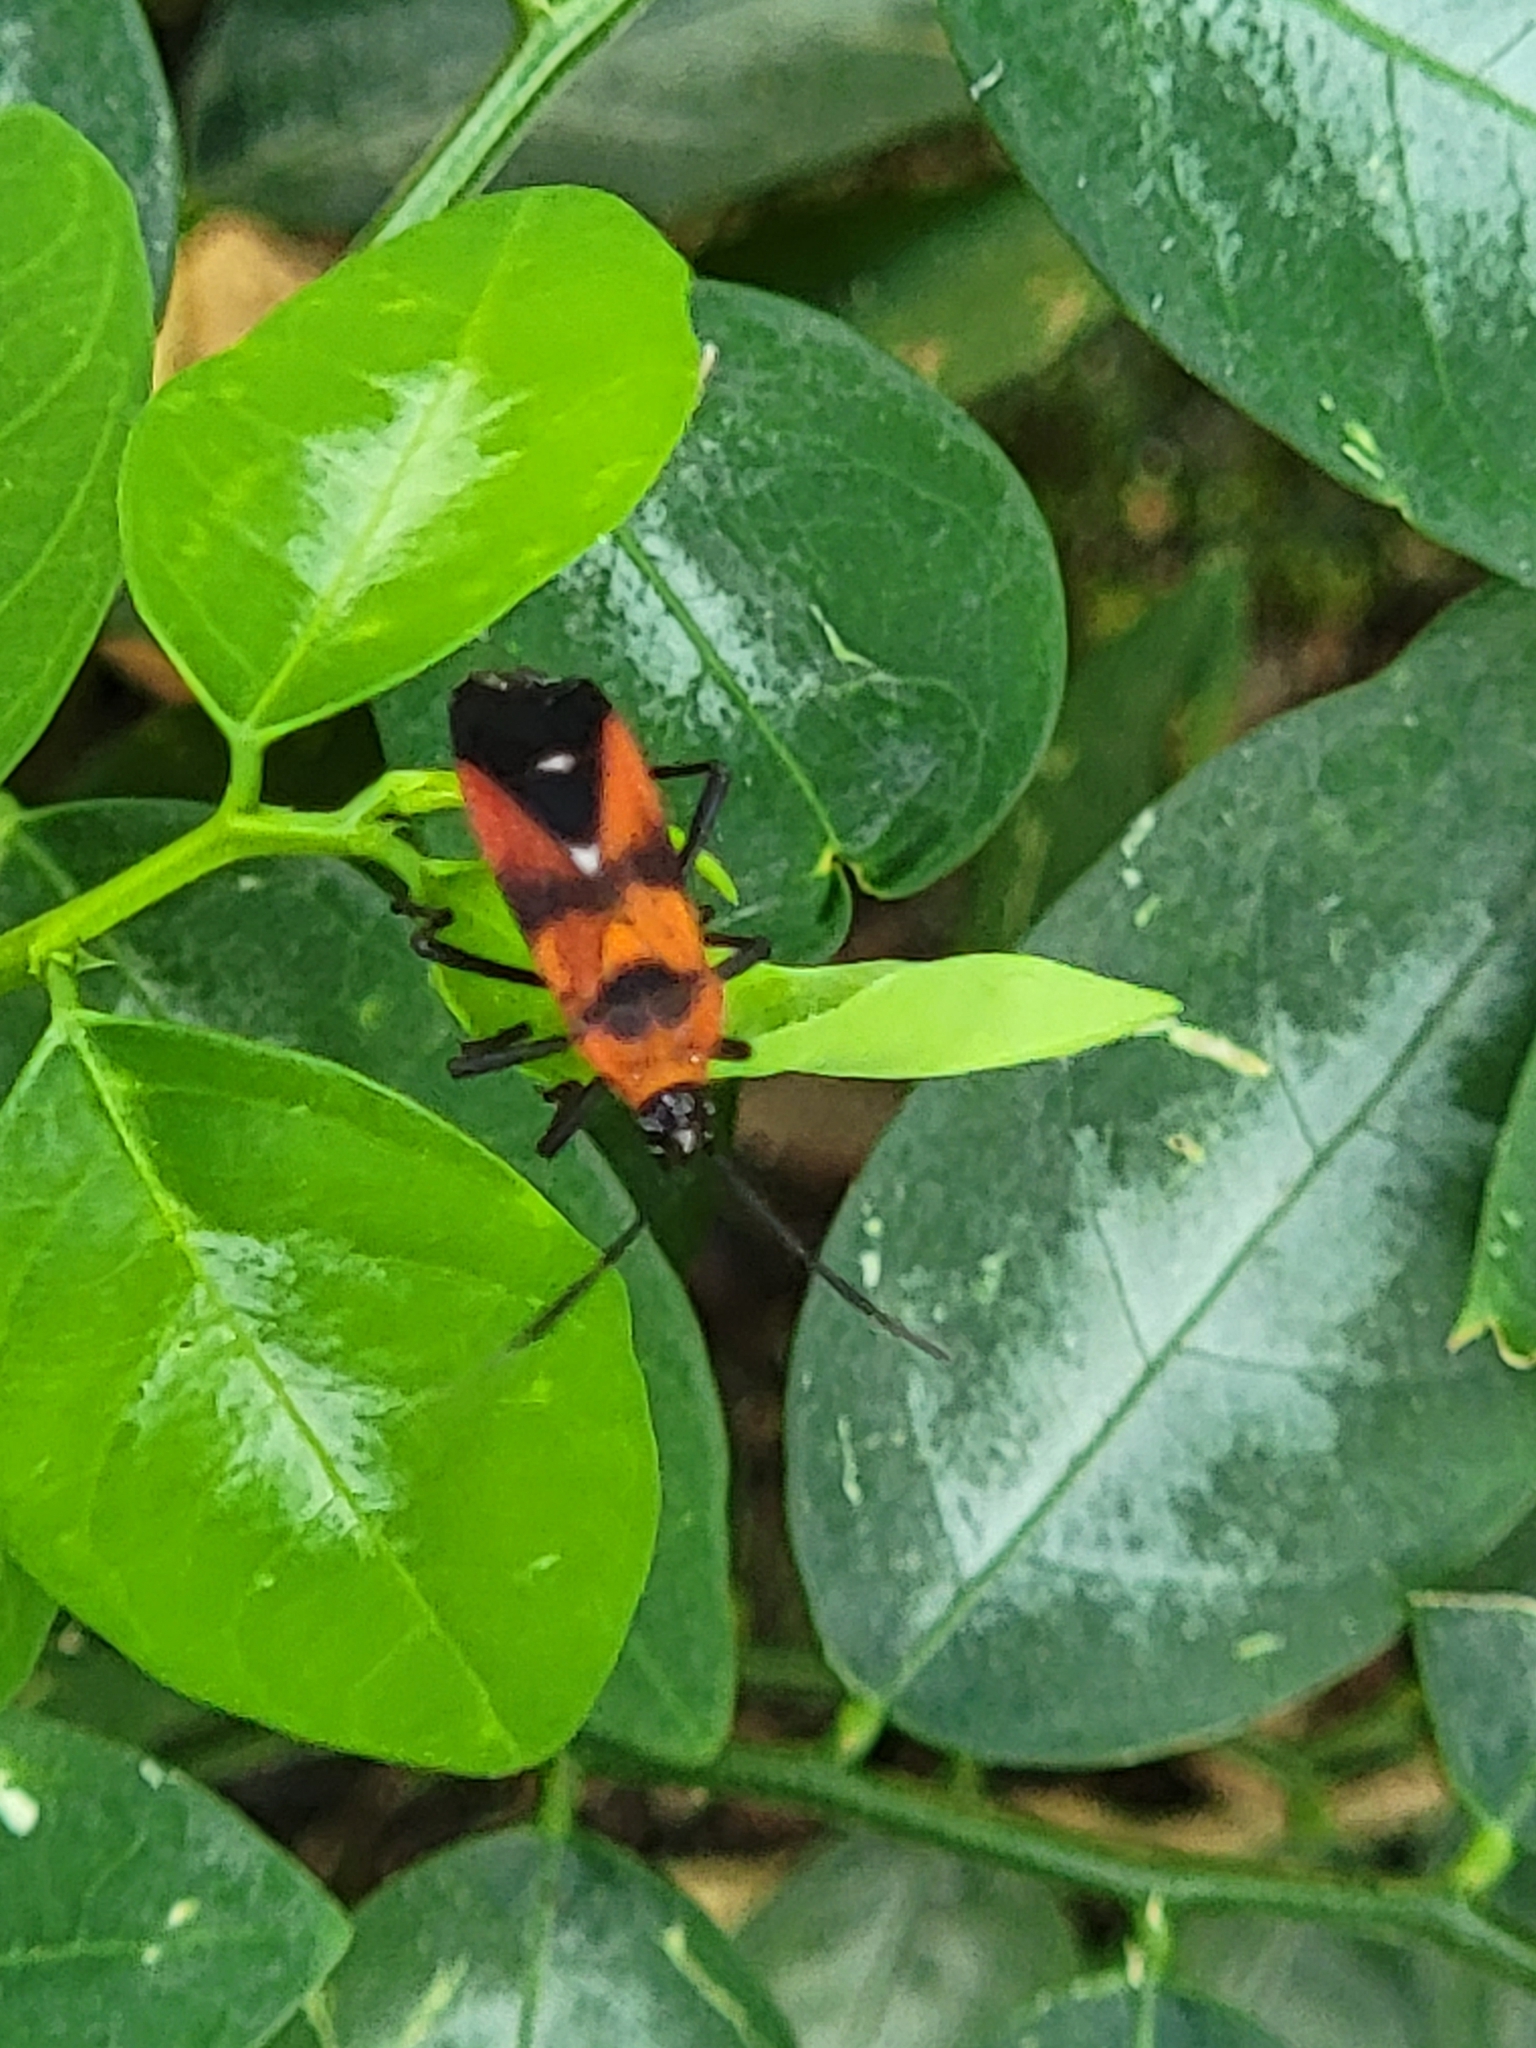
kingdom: Animalia
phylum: Arthropoda
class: Insecta
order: Hemiptera
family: Lygaeidae
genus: Oncopeltus
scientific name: Oncopeltus nigriceps
